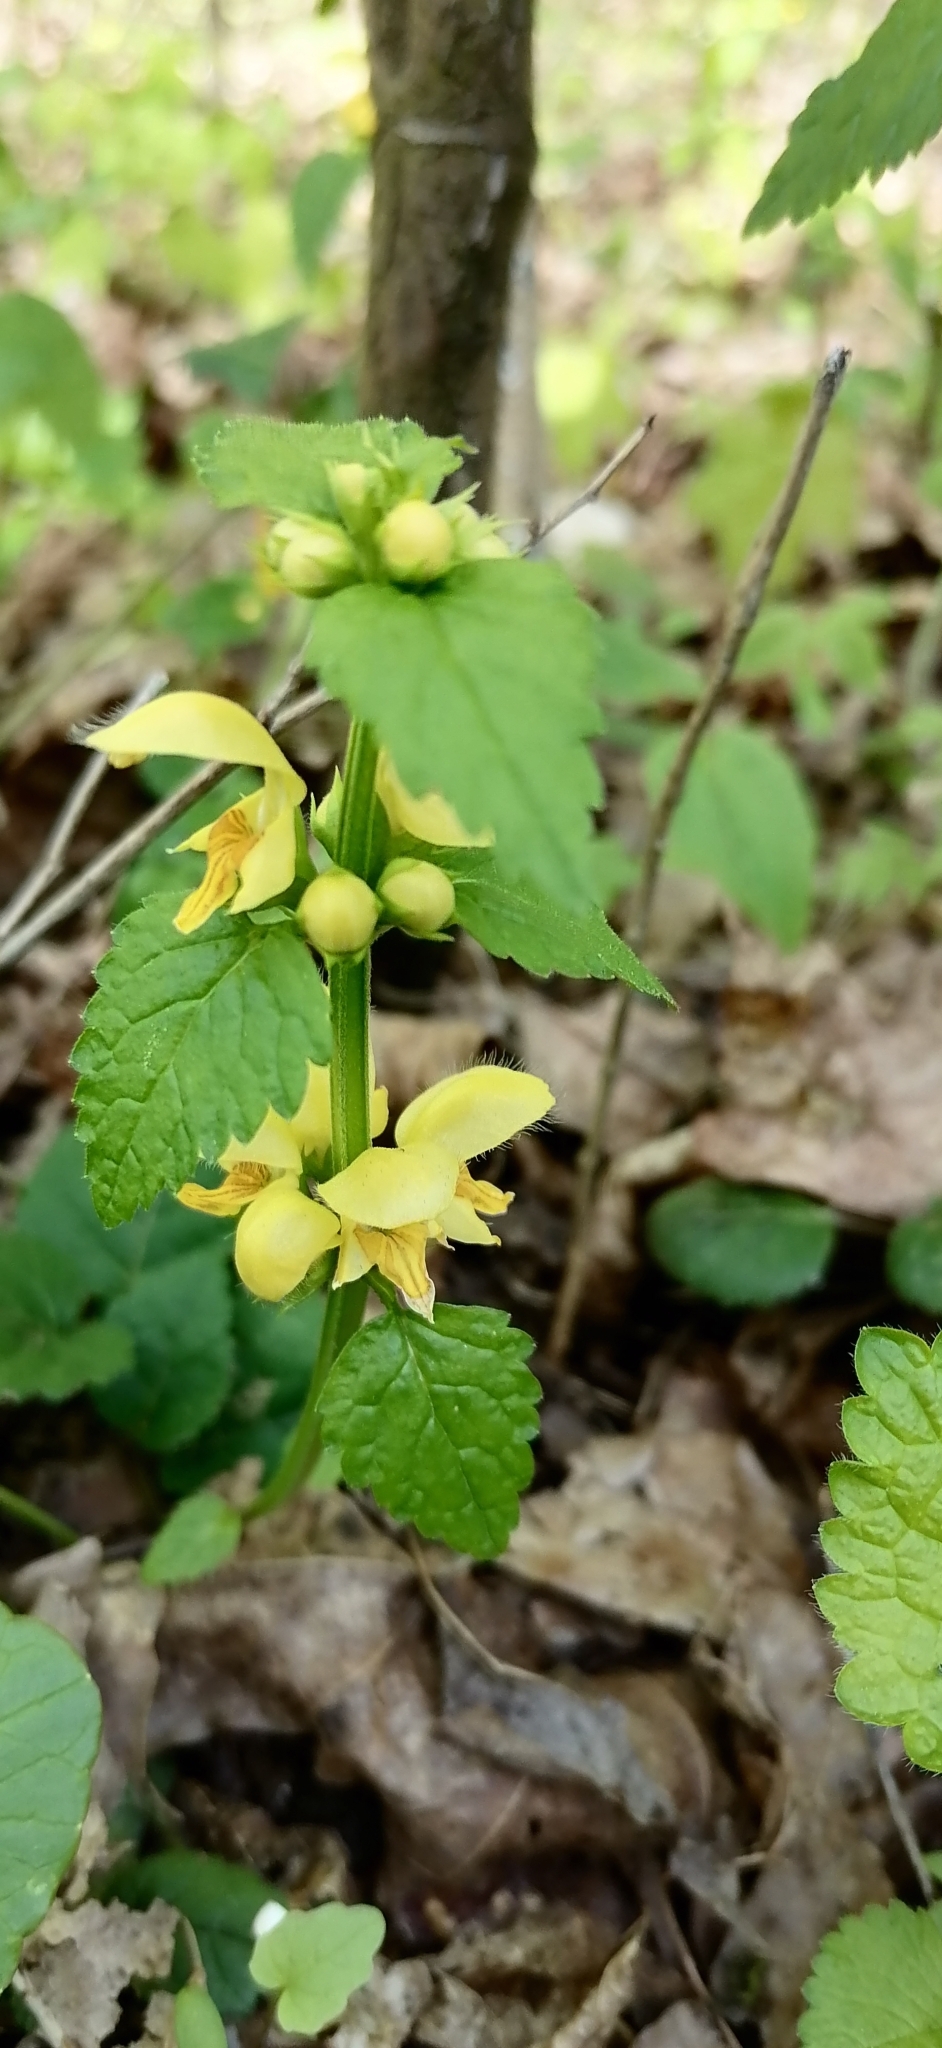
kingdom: Plantae
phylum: Tracheophyta
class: Magnoliopsida
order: Lamiales
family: Lamiaceae
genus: Lamium
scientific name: Lamium galeobdolon
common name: Yellow archangel
